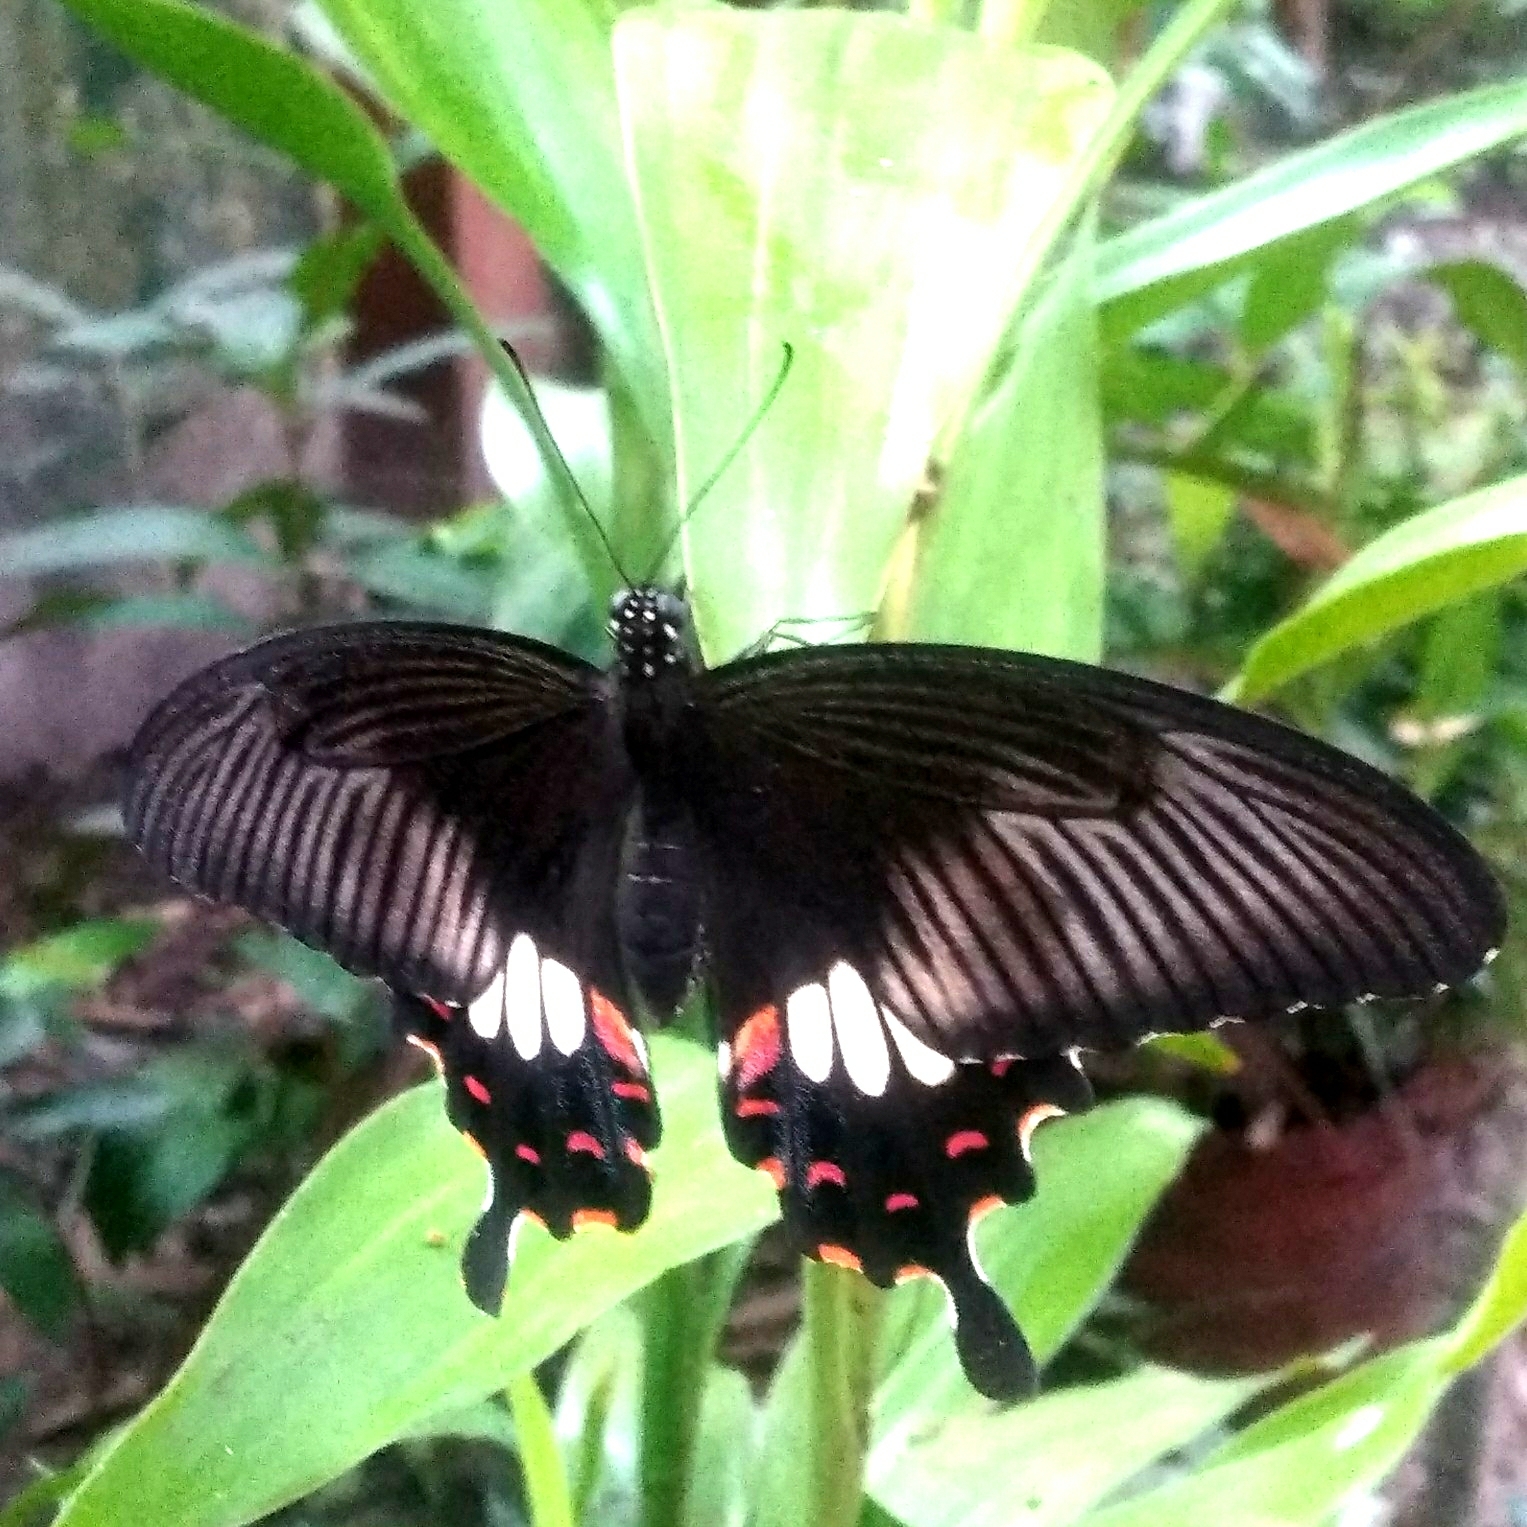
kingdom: Animalia
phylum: Arthropoda
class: Insecta
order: Lepidoptera
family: Papilionidae
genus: Papilio
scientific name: Papilio polytes
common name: Common mormon
